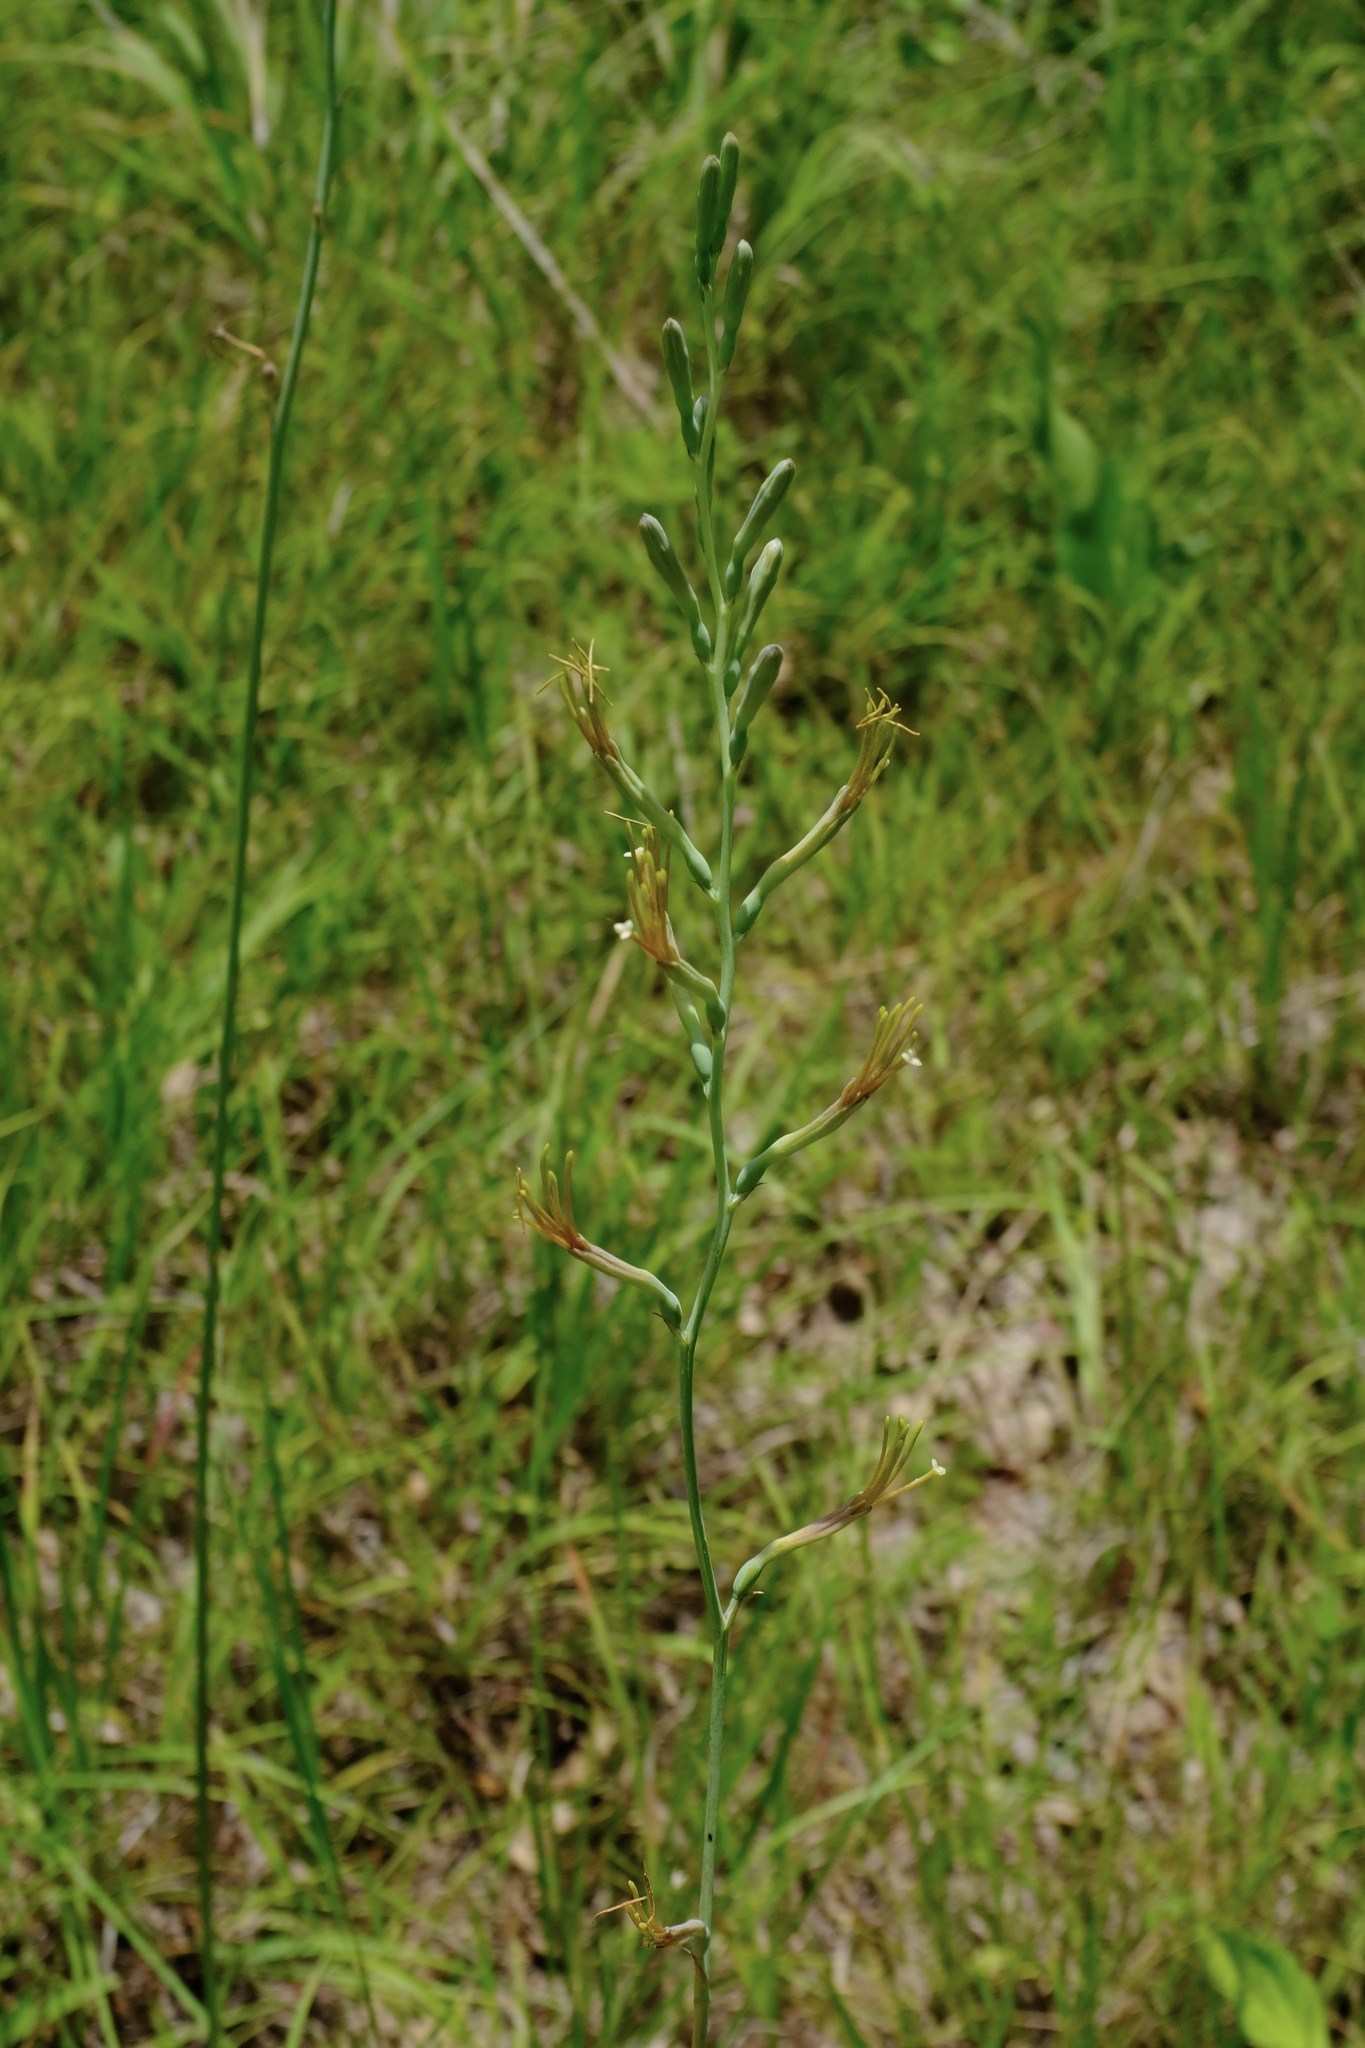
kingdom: Plantae
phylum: Tracheophyta
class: Liliopsida
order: Asparagales
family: Asparagaceae
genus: Agave
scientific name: Agave virginica
